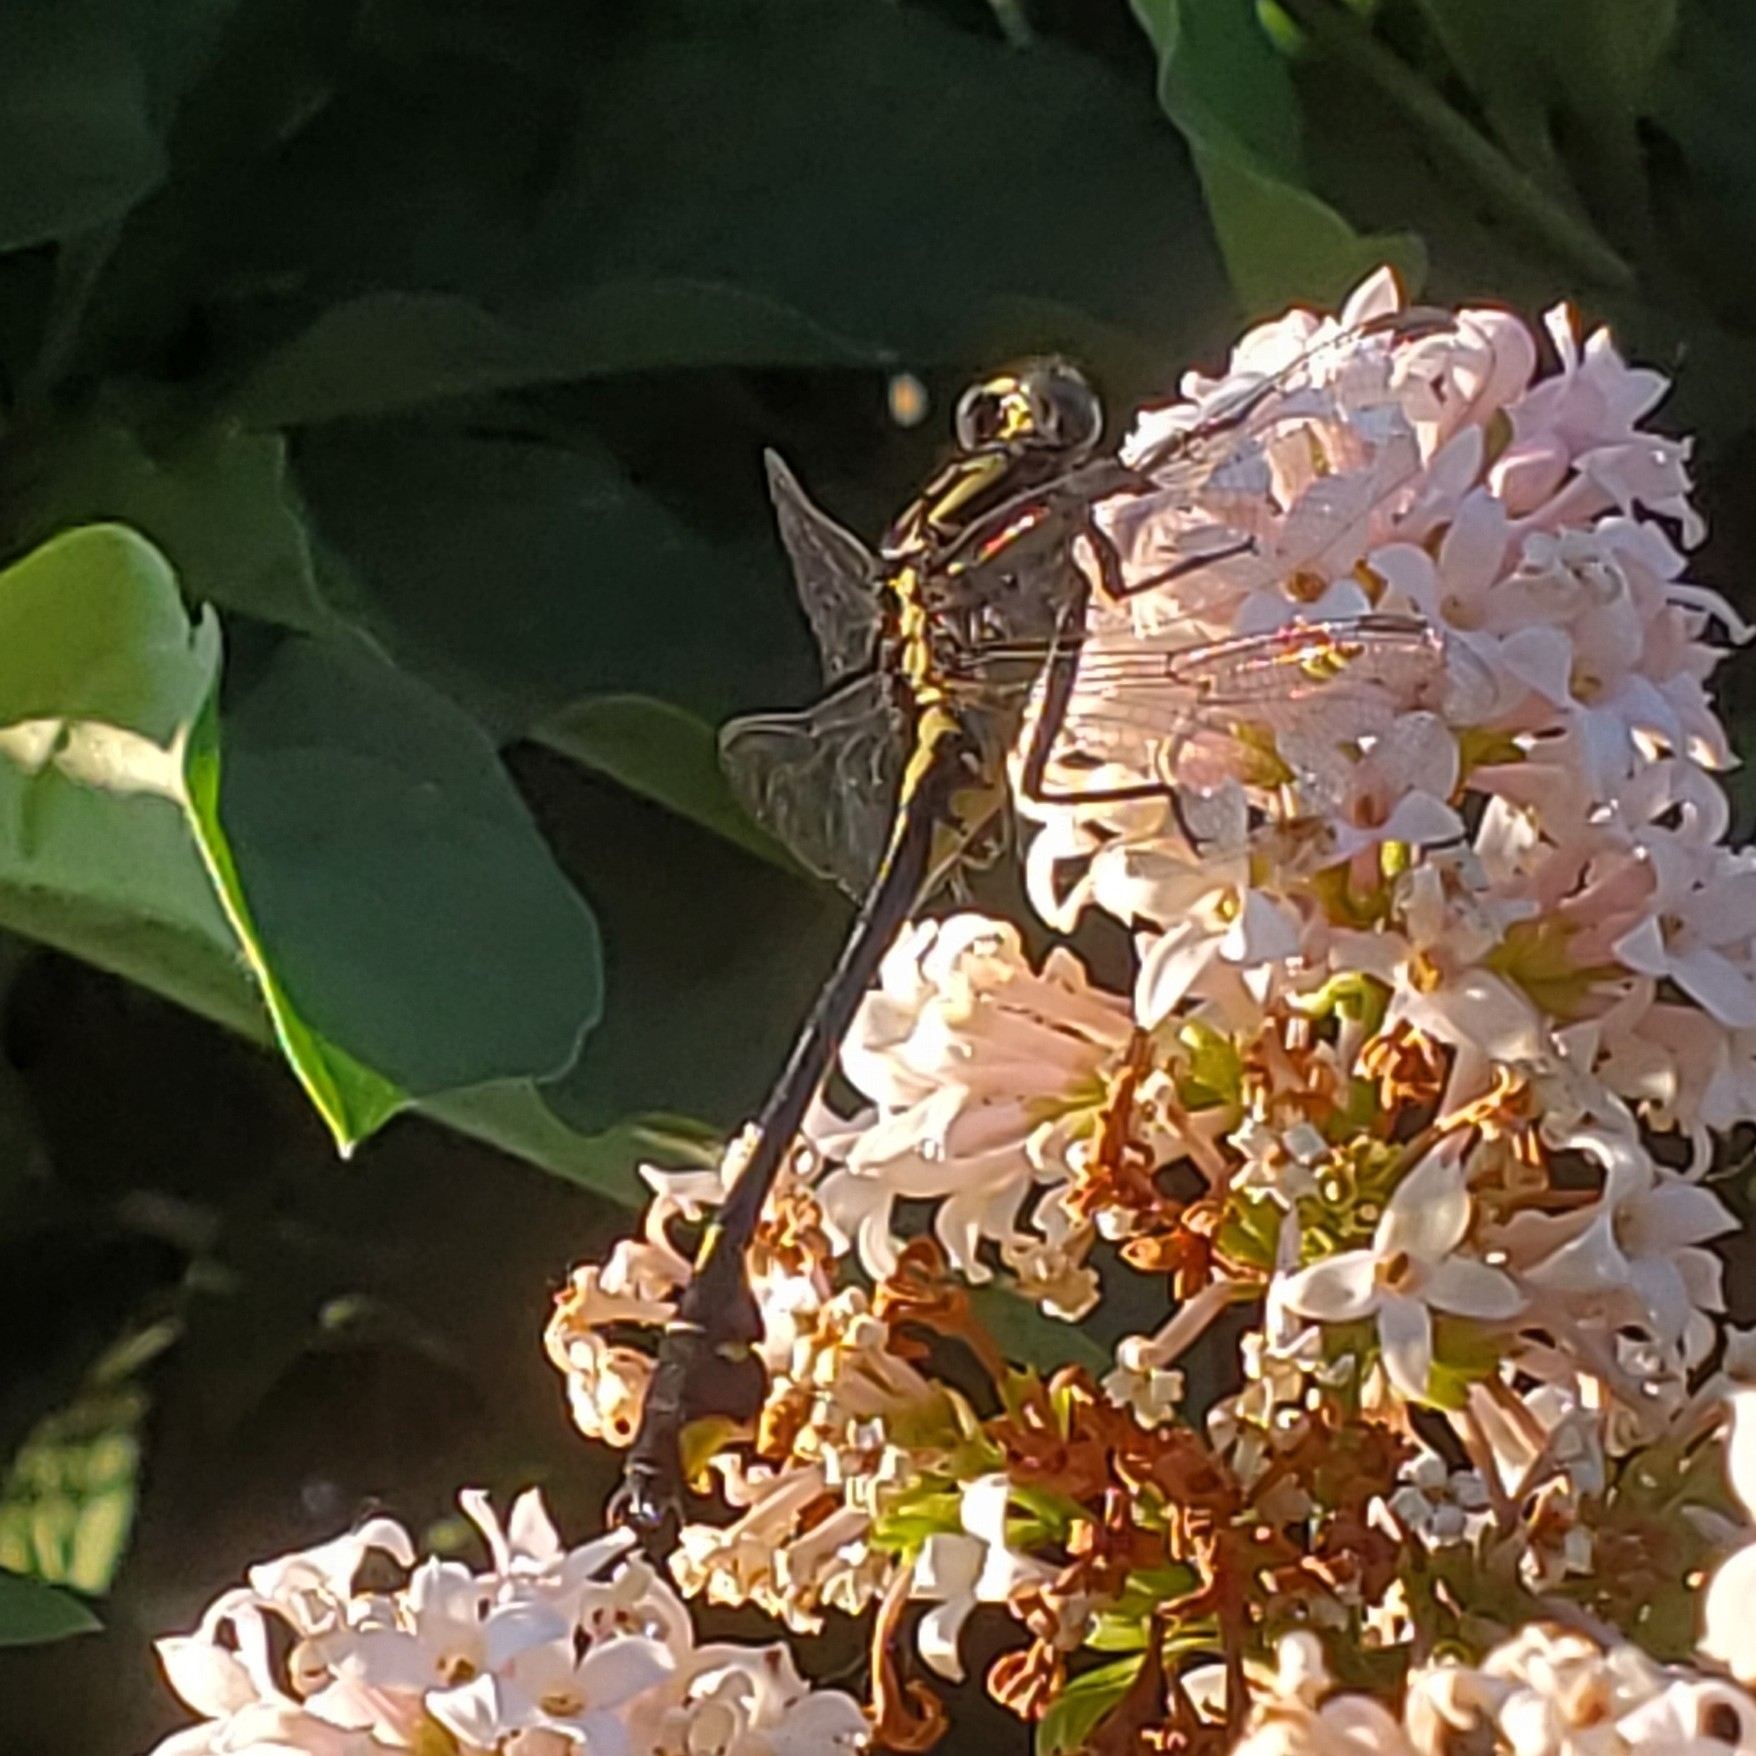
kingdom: Animalia
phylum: Arthropoda
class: Insecta
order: Odonata
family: Gomphidae
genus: Gomphurus
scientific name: Gomphurus vastus
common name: Cobra clubtail
